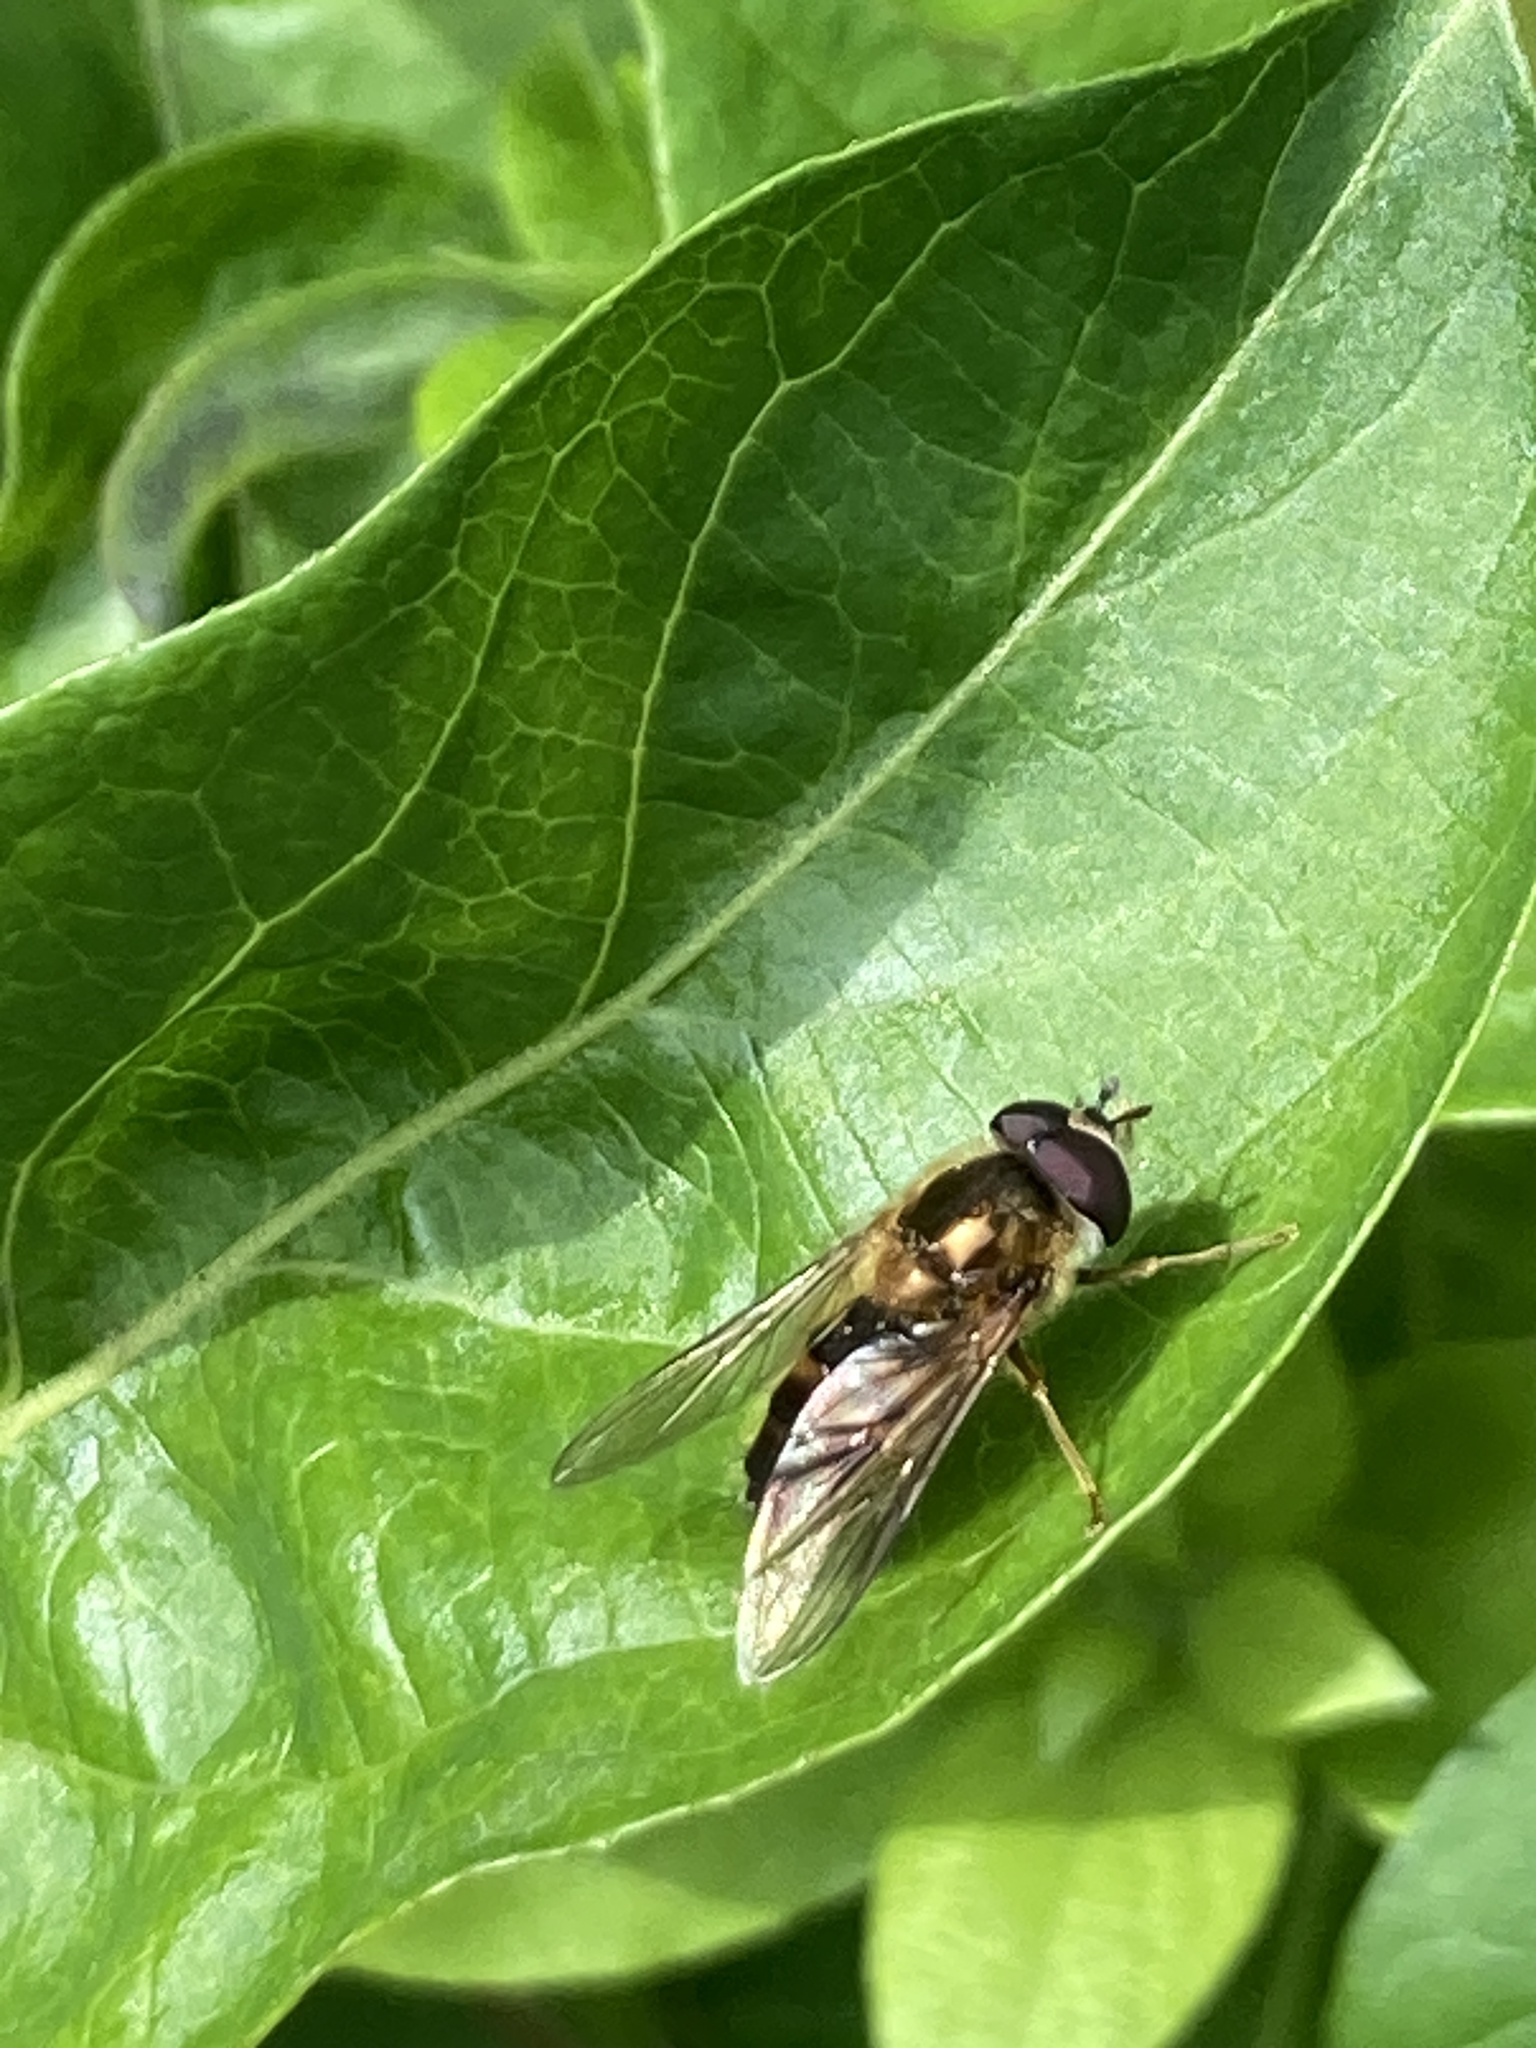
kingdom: Animalia
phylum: Arthropoda
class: Insecta
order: Diptera
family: Syrphidae
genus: Epistrophe
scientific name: Epistrophe eligans
